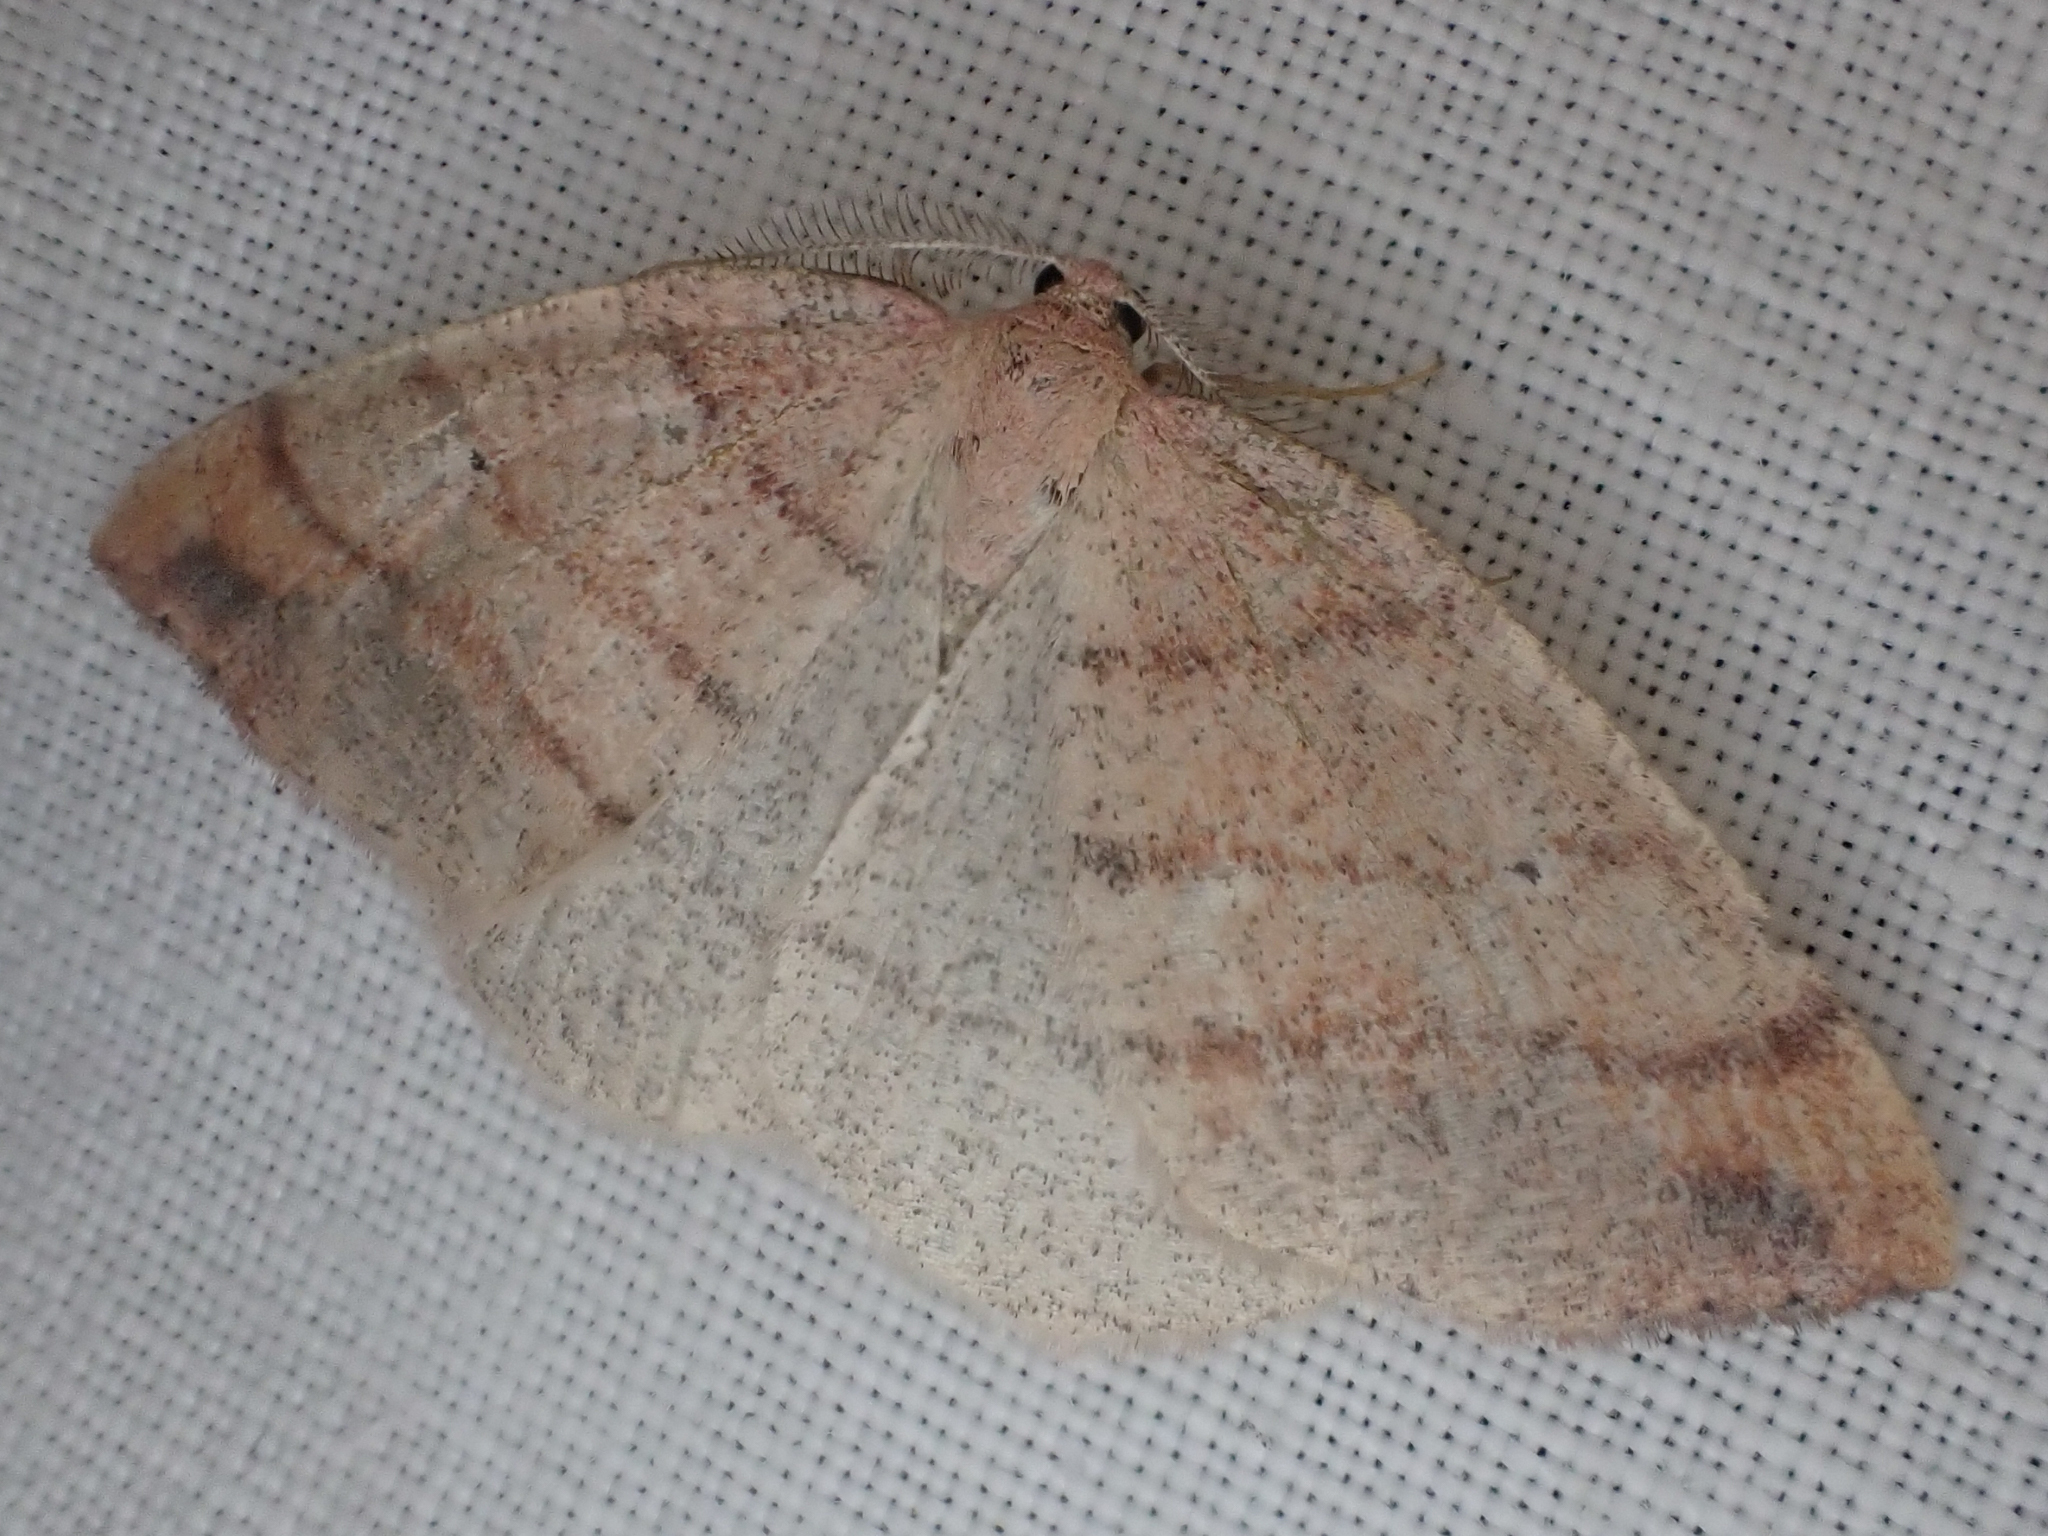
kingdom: Animalia
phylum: Arthropoda
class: Insecta
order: Lepidoptera
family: Geometridae
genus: Drepanulatrix
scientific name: Drepanulatrix carnearia
